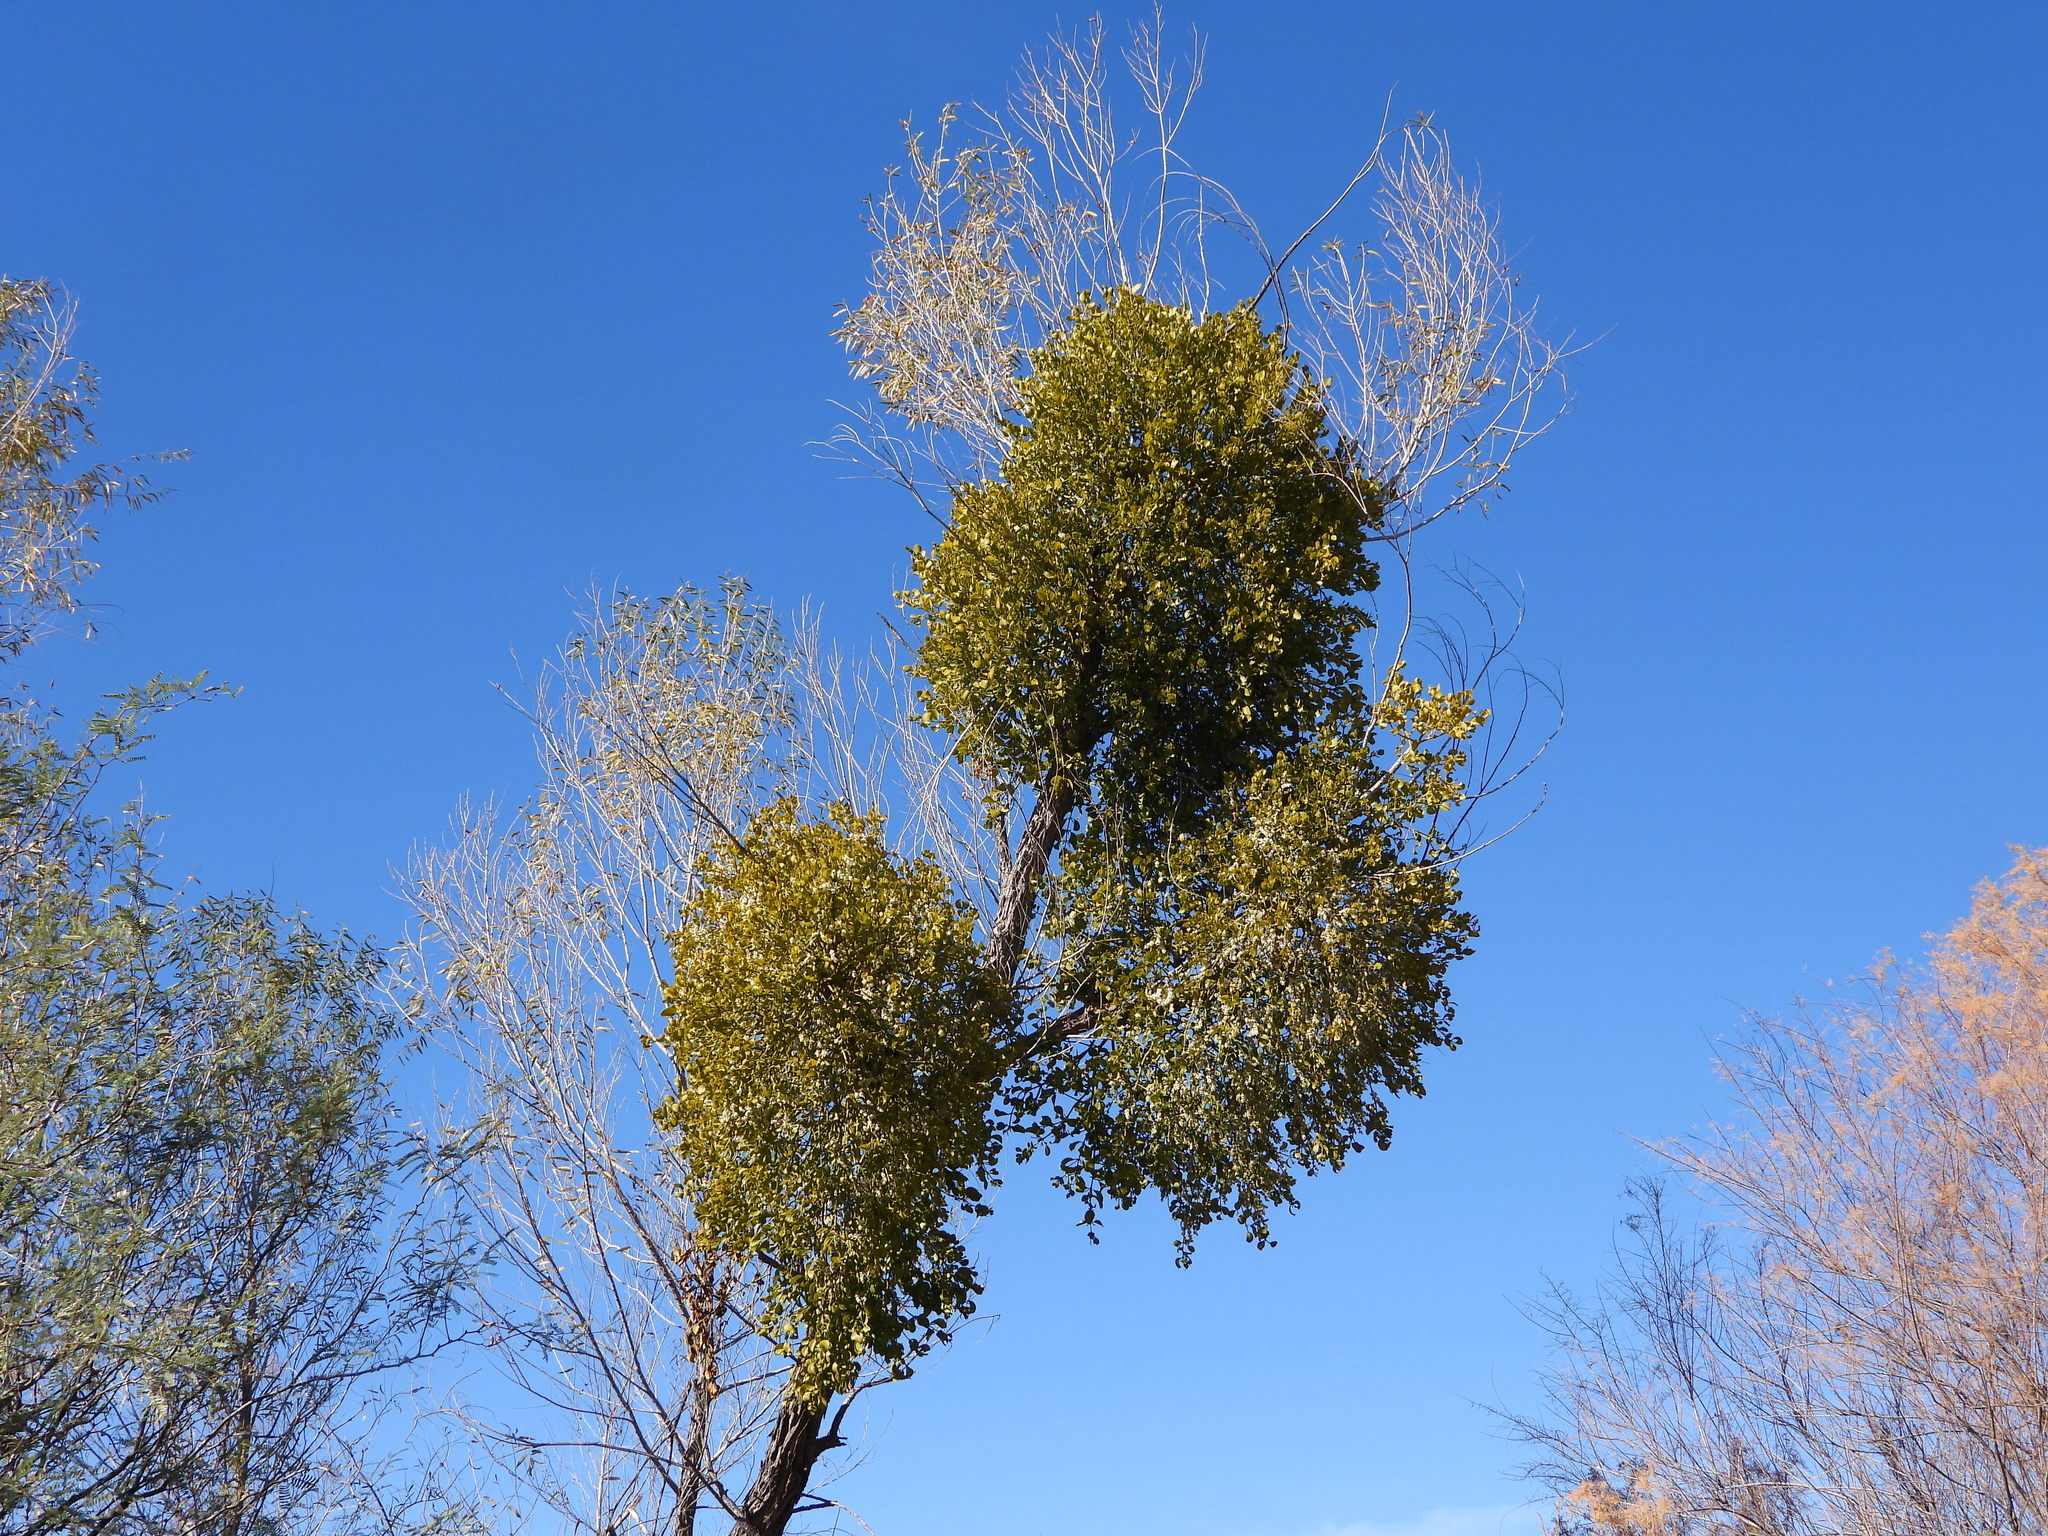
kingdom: Plantae
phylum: Tracheophyta
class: Magnoliopsida
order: Santalales
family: Viscaceae
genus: Phoradendron
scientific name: Phoradendron
